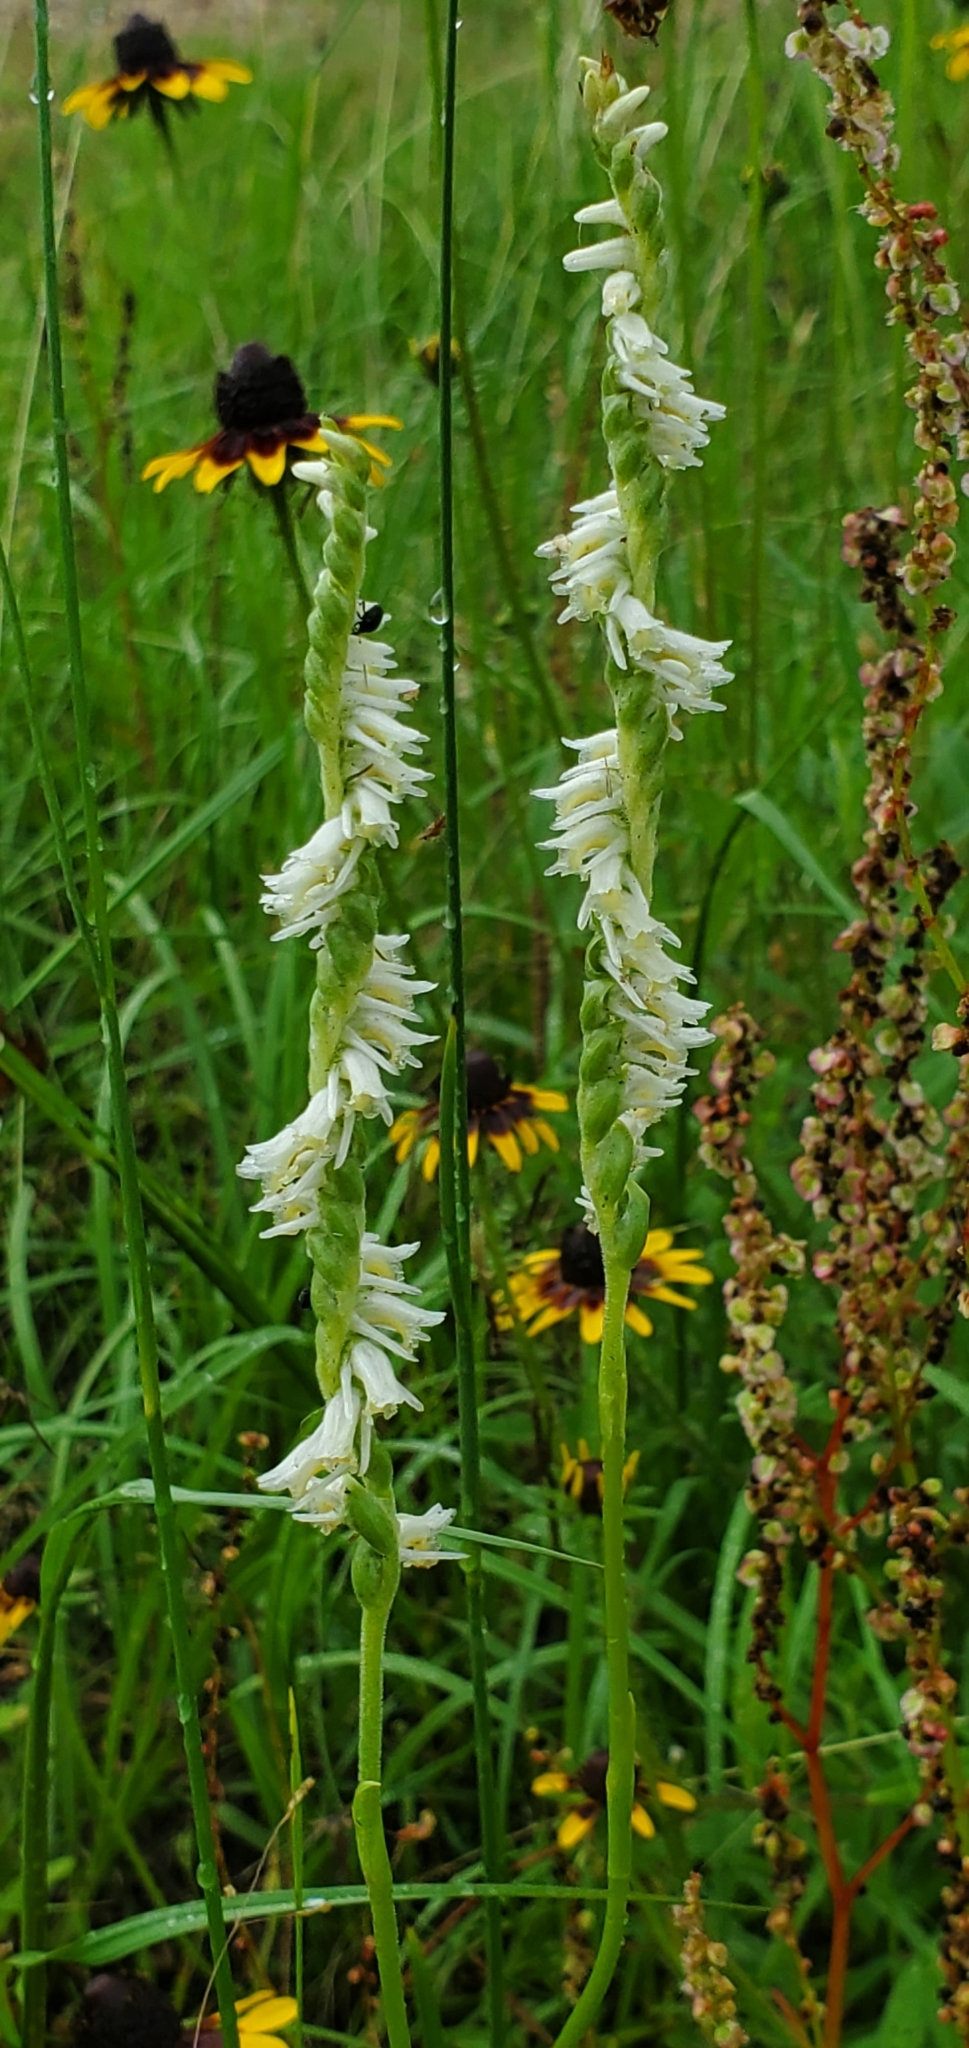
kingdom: Plantae
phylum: Tracheophyta
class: Liliopsida
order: Asparagales
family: Orchidaceae
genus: Spiranthes
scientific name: Spiranthes vernalis
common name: Spring ladies'-tresses
